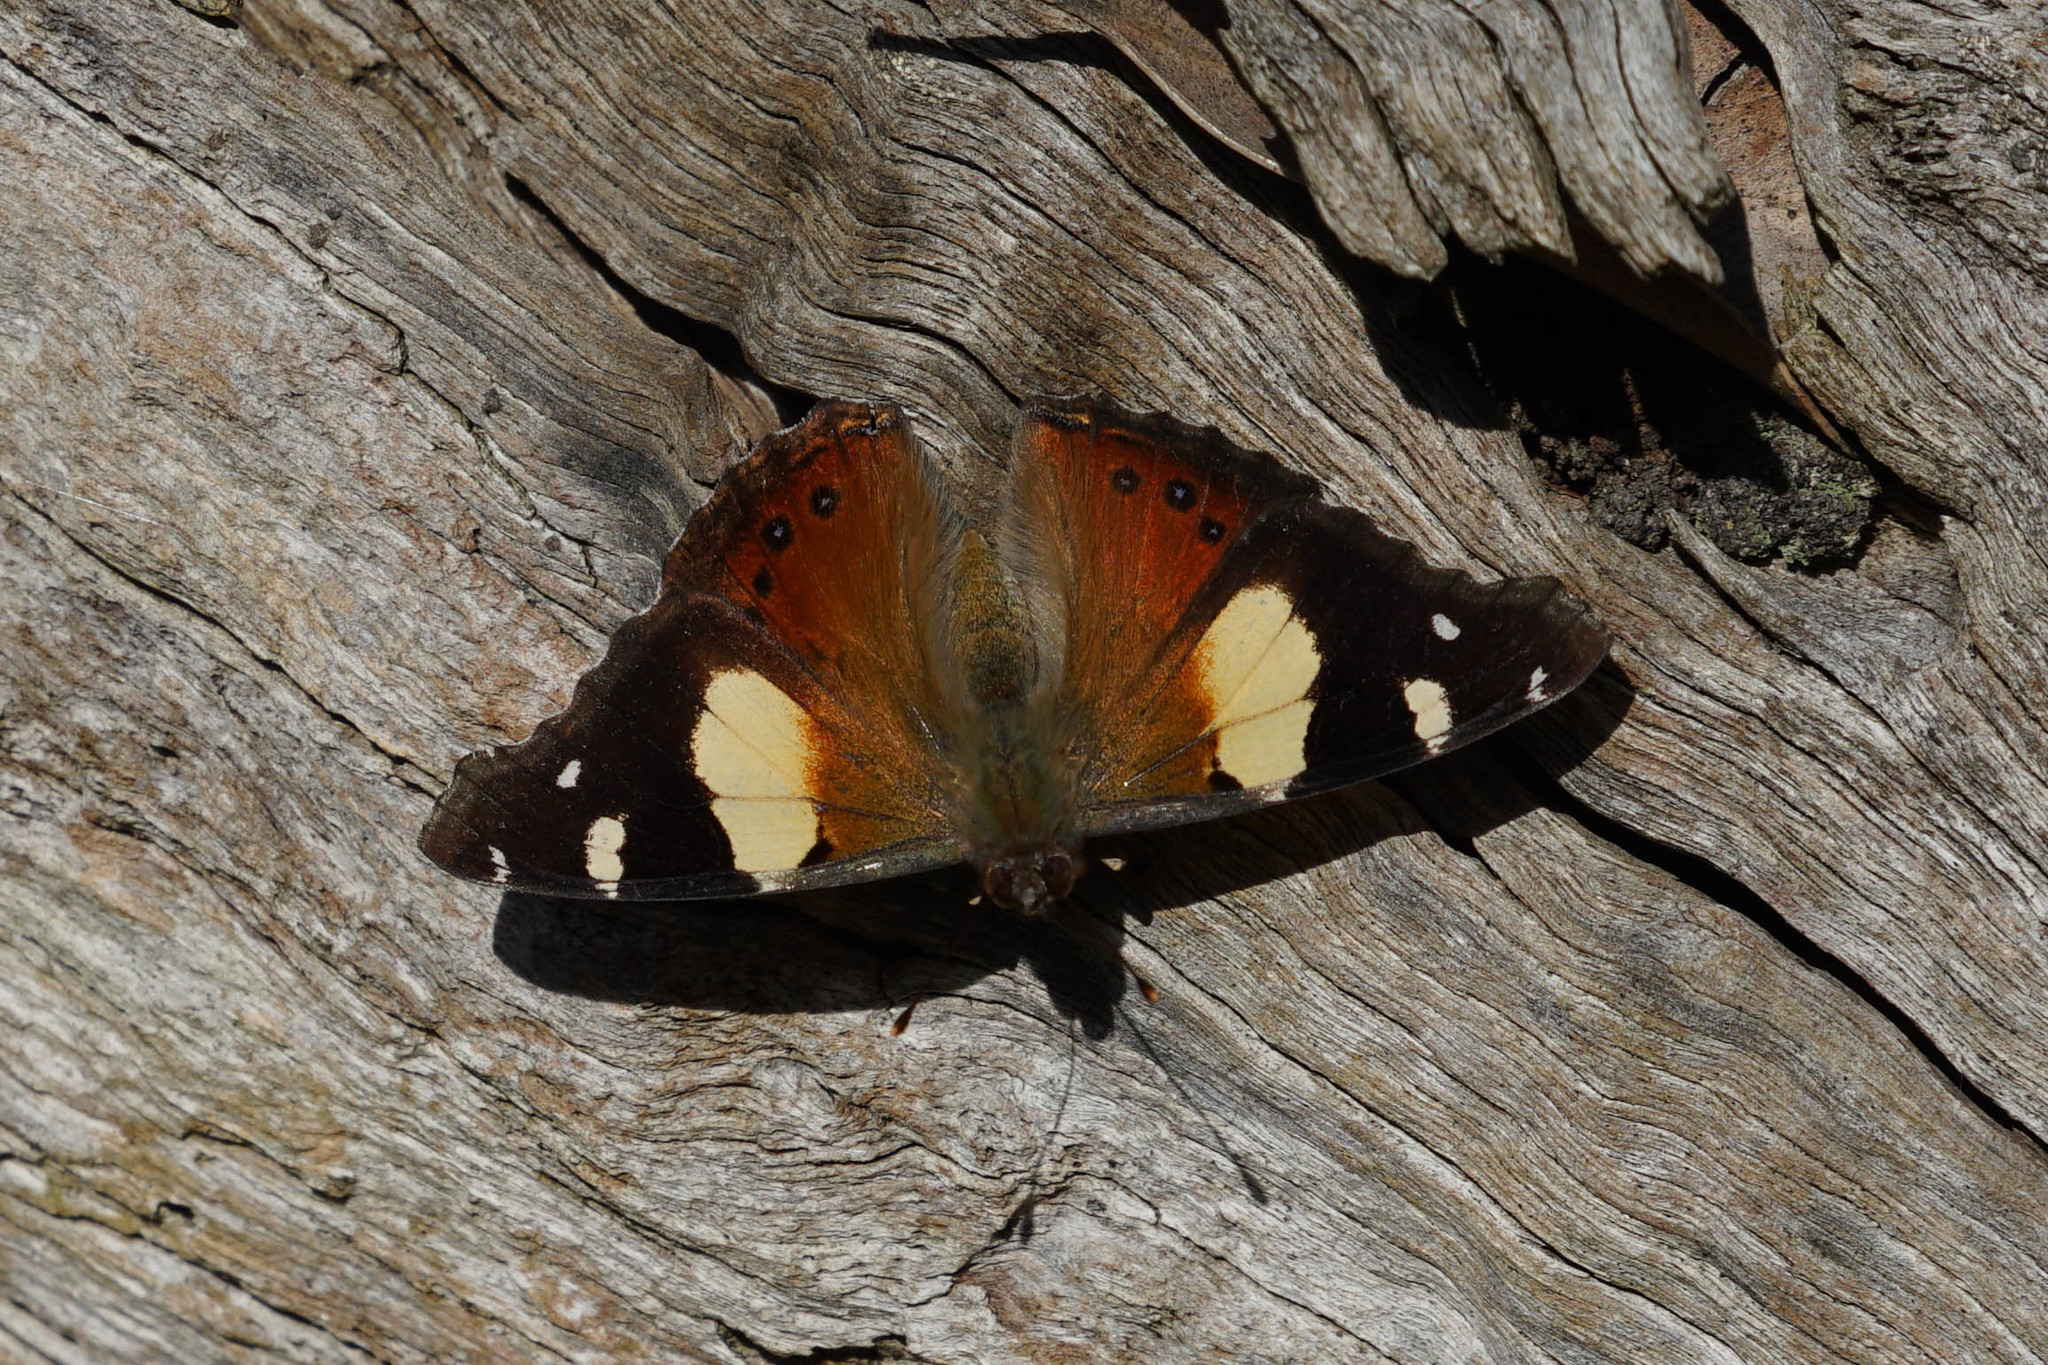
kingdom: Animalia
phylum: Arthropoda
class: Insecta
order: Lepidoptera
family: Nymphalidae
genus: Vanessa
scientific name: Vanessa itea
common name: Yellow admiral
